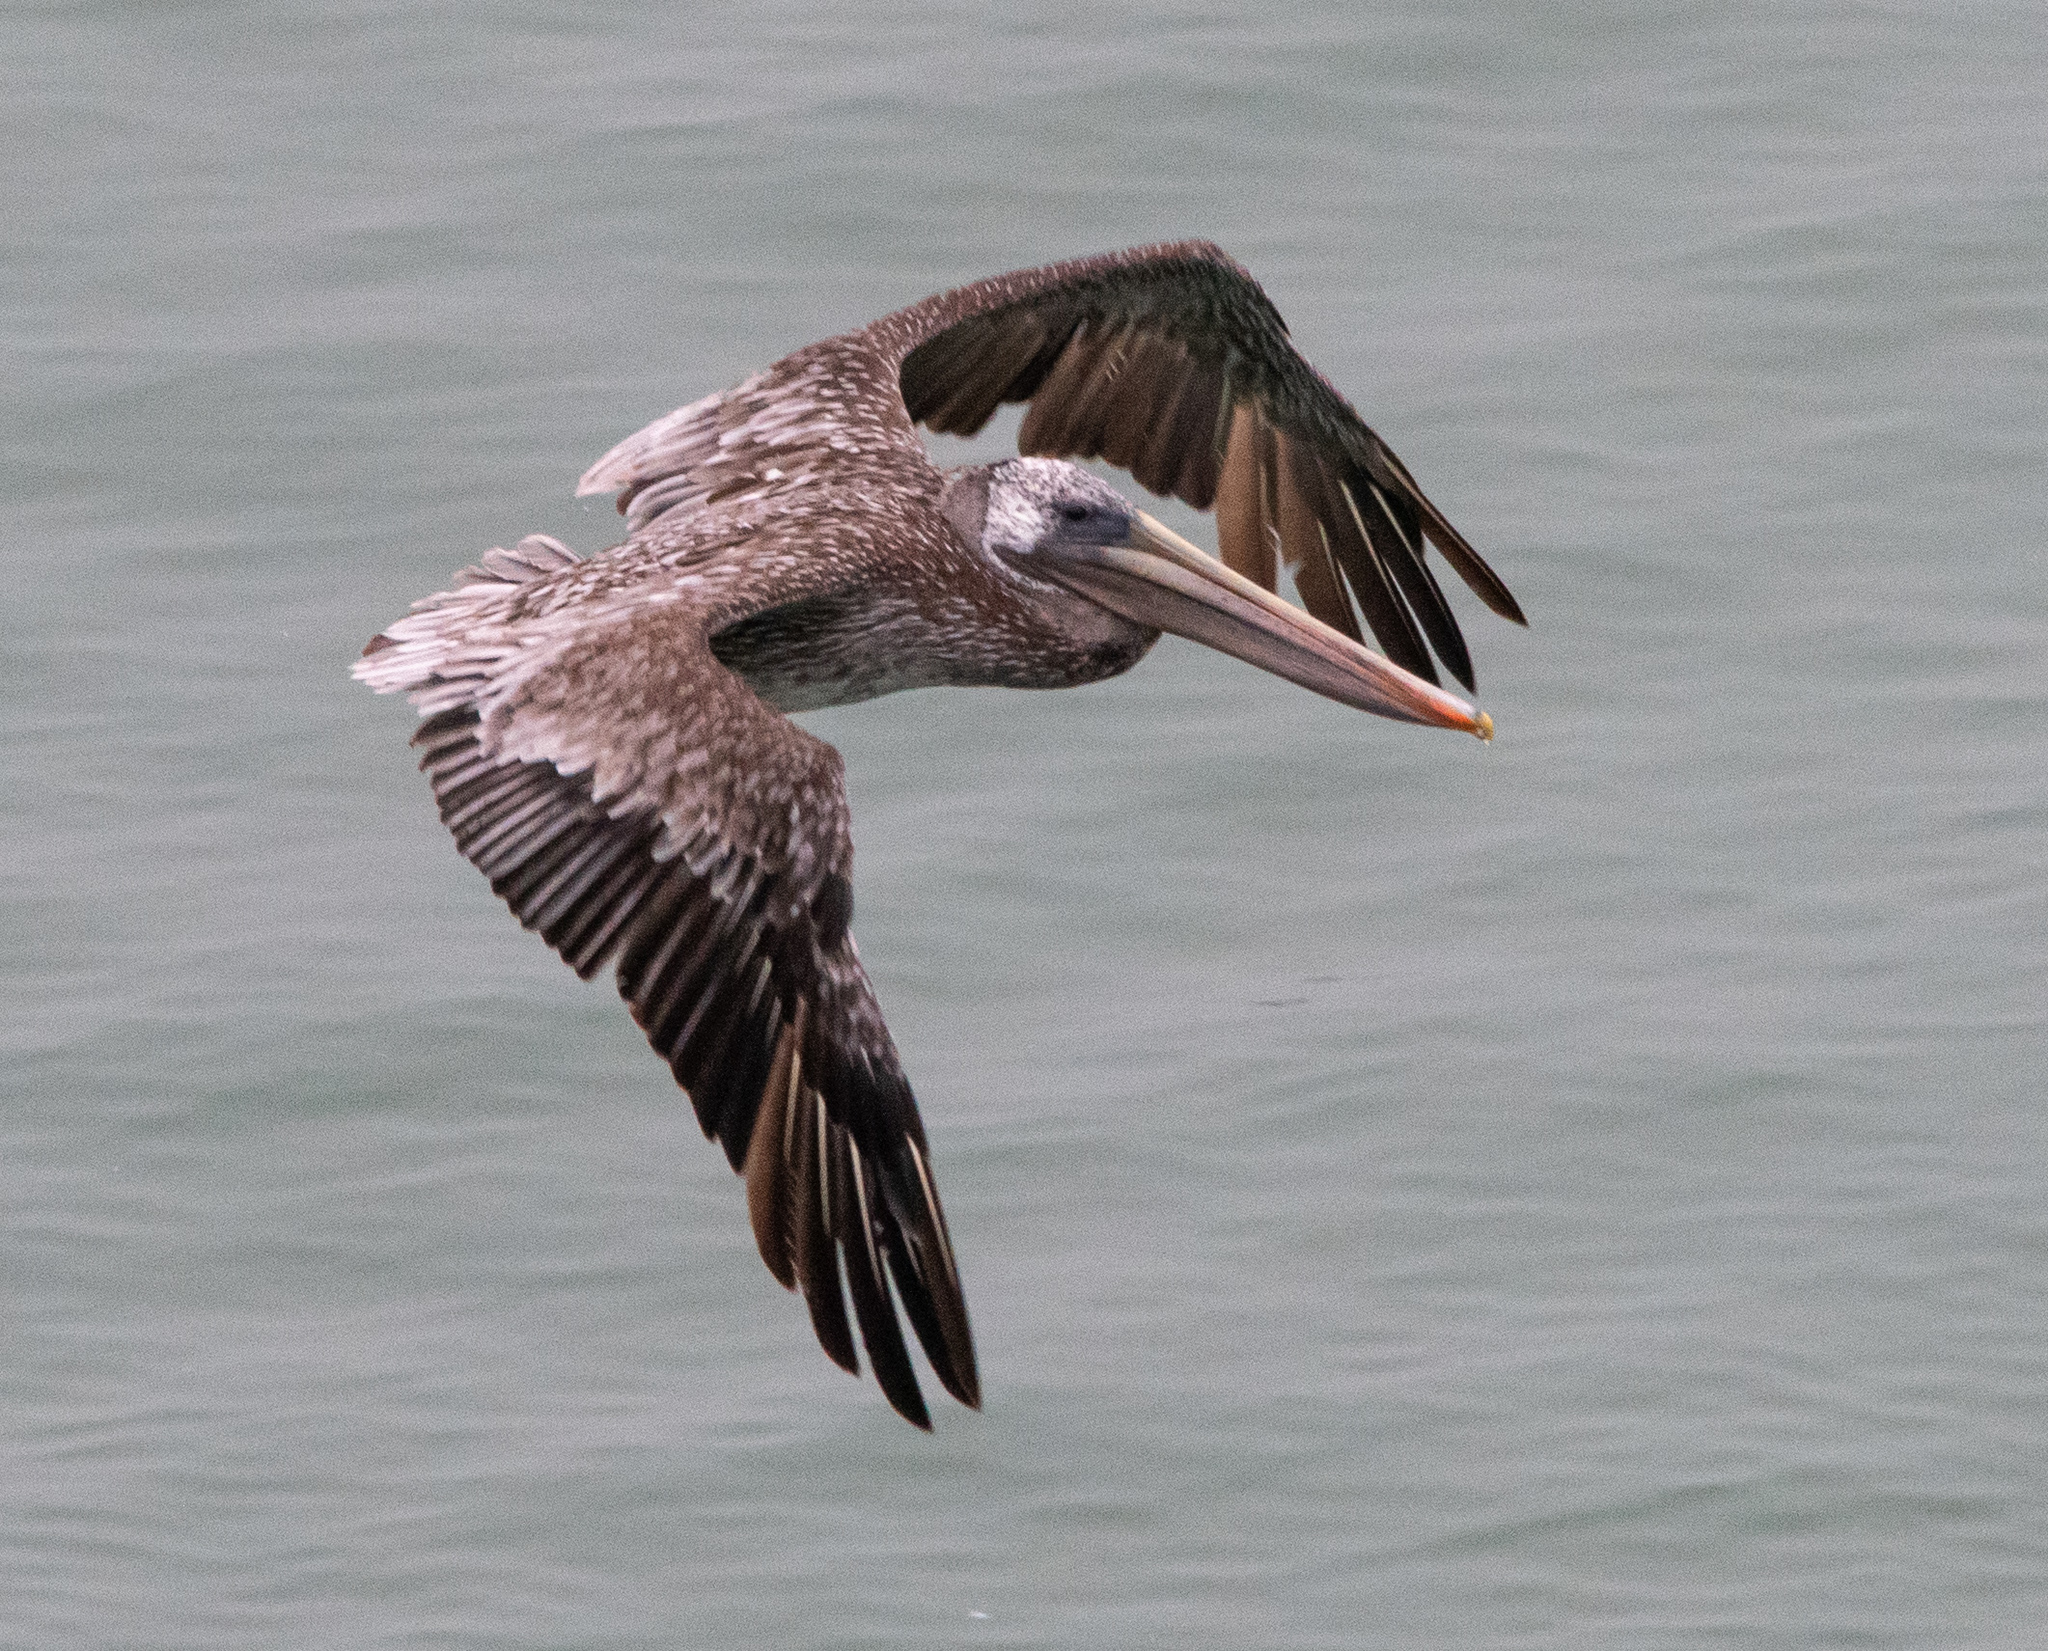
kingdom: Animalia
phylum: Chordata
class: Aves
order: Pelecaniformes
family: Pelecanidae
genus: Pelecanus
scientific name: Pelecanus occidentalis
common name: Brown pelican
